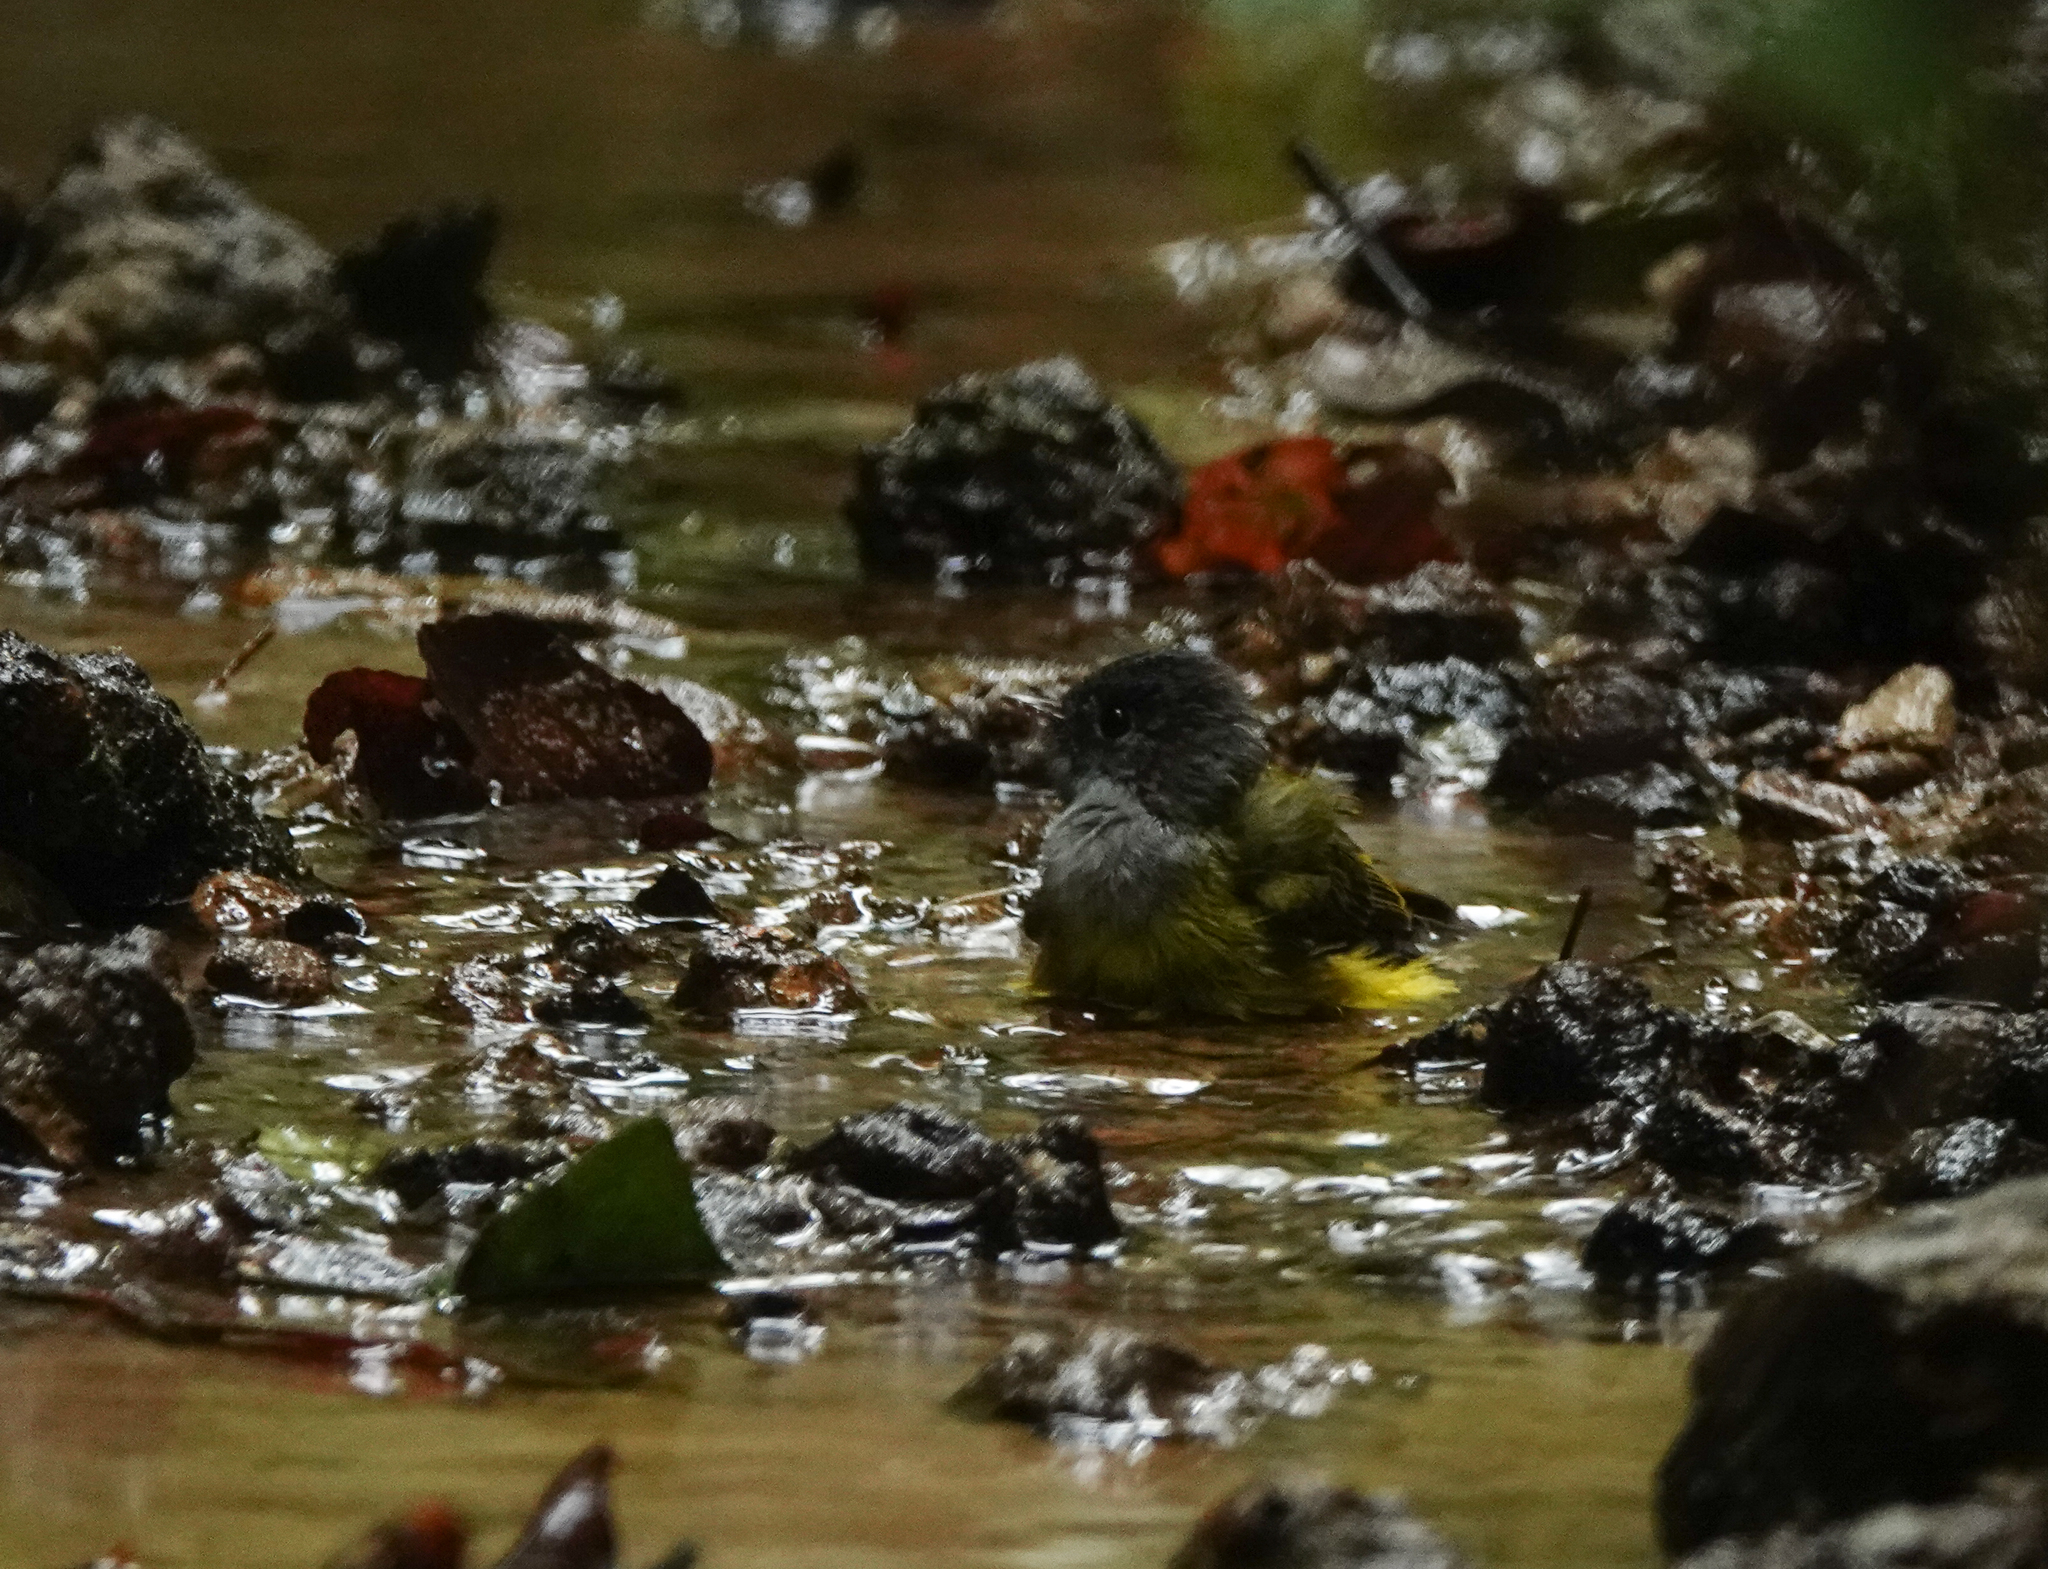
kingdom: Animalia
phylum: Chordata
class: Aves
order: Passeriformes
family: Stenostiridae
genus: Culicicapa
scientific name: Culicicapa ceylonensis
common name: Grey-headed canary-flycatcher
